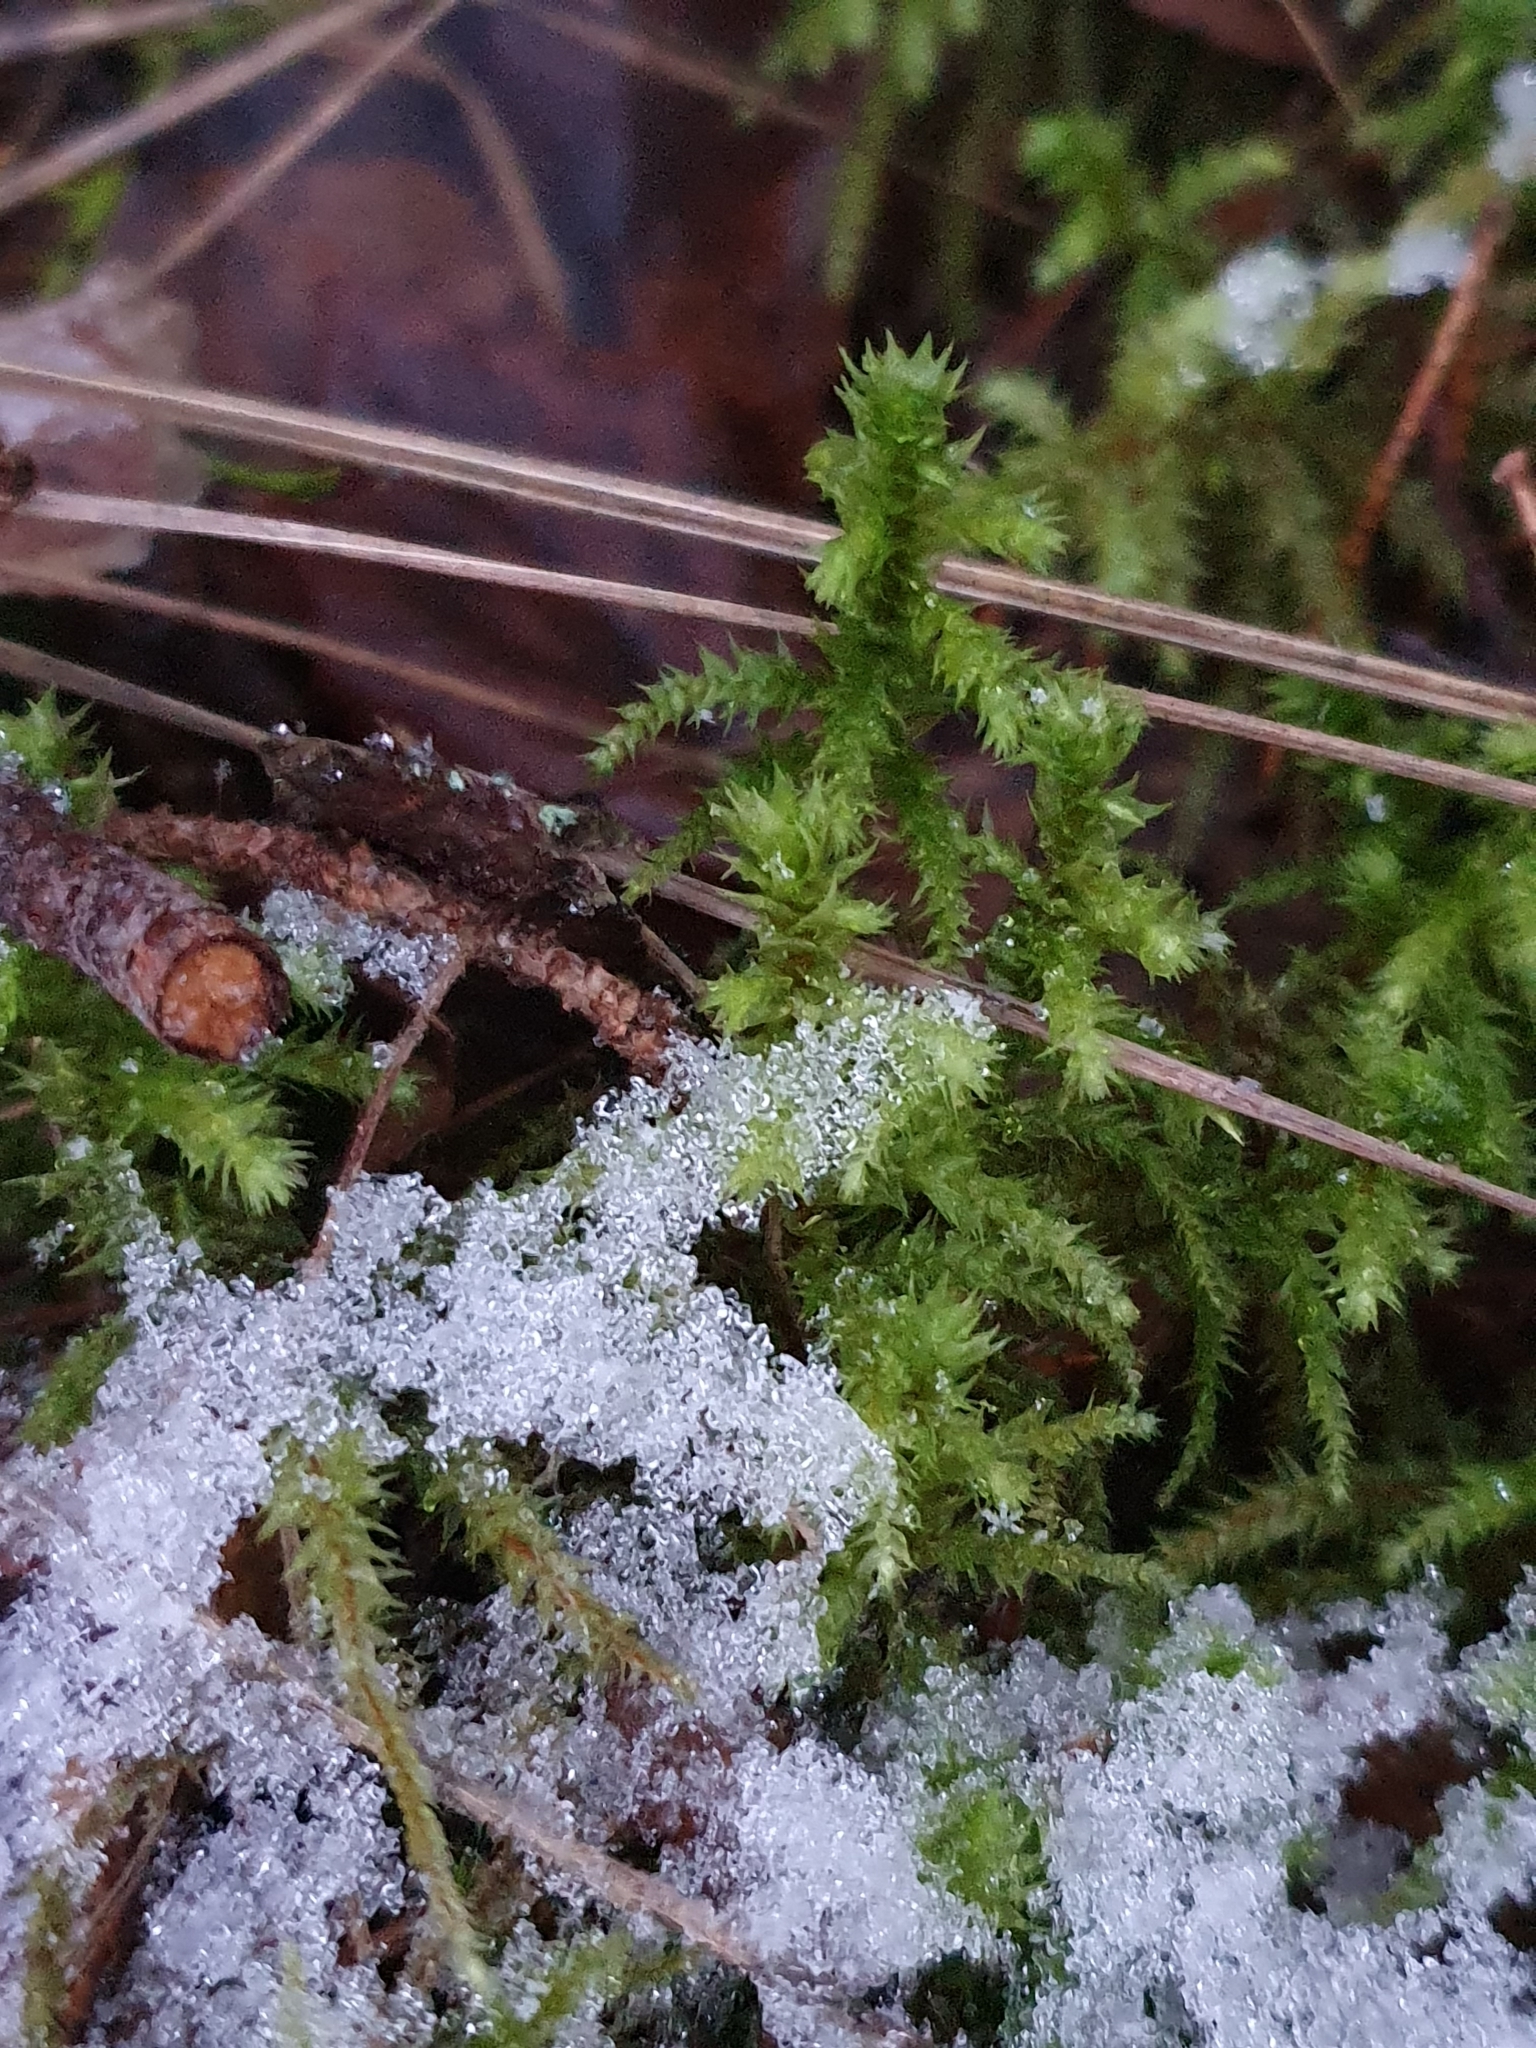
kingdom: Plantae
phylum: Bryophyta
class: Bryopsida
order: Hypnales
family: Hylocomiaceae
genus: Hylocomiadelphus
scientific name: Hylocomiadelphus triquetrus
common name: Rough goose neck moss
